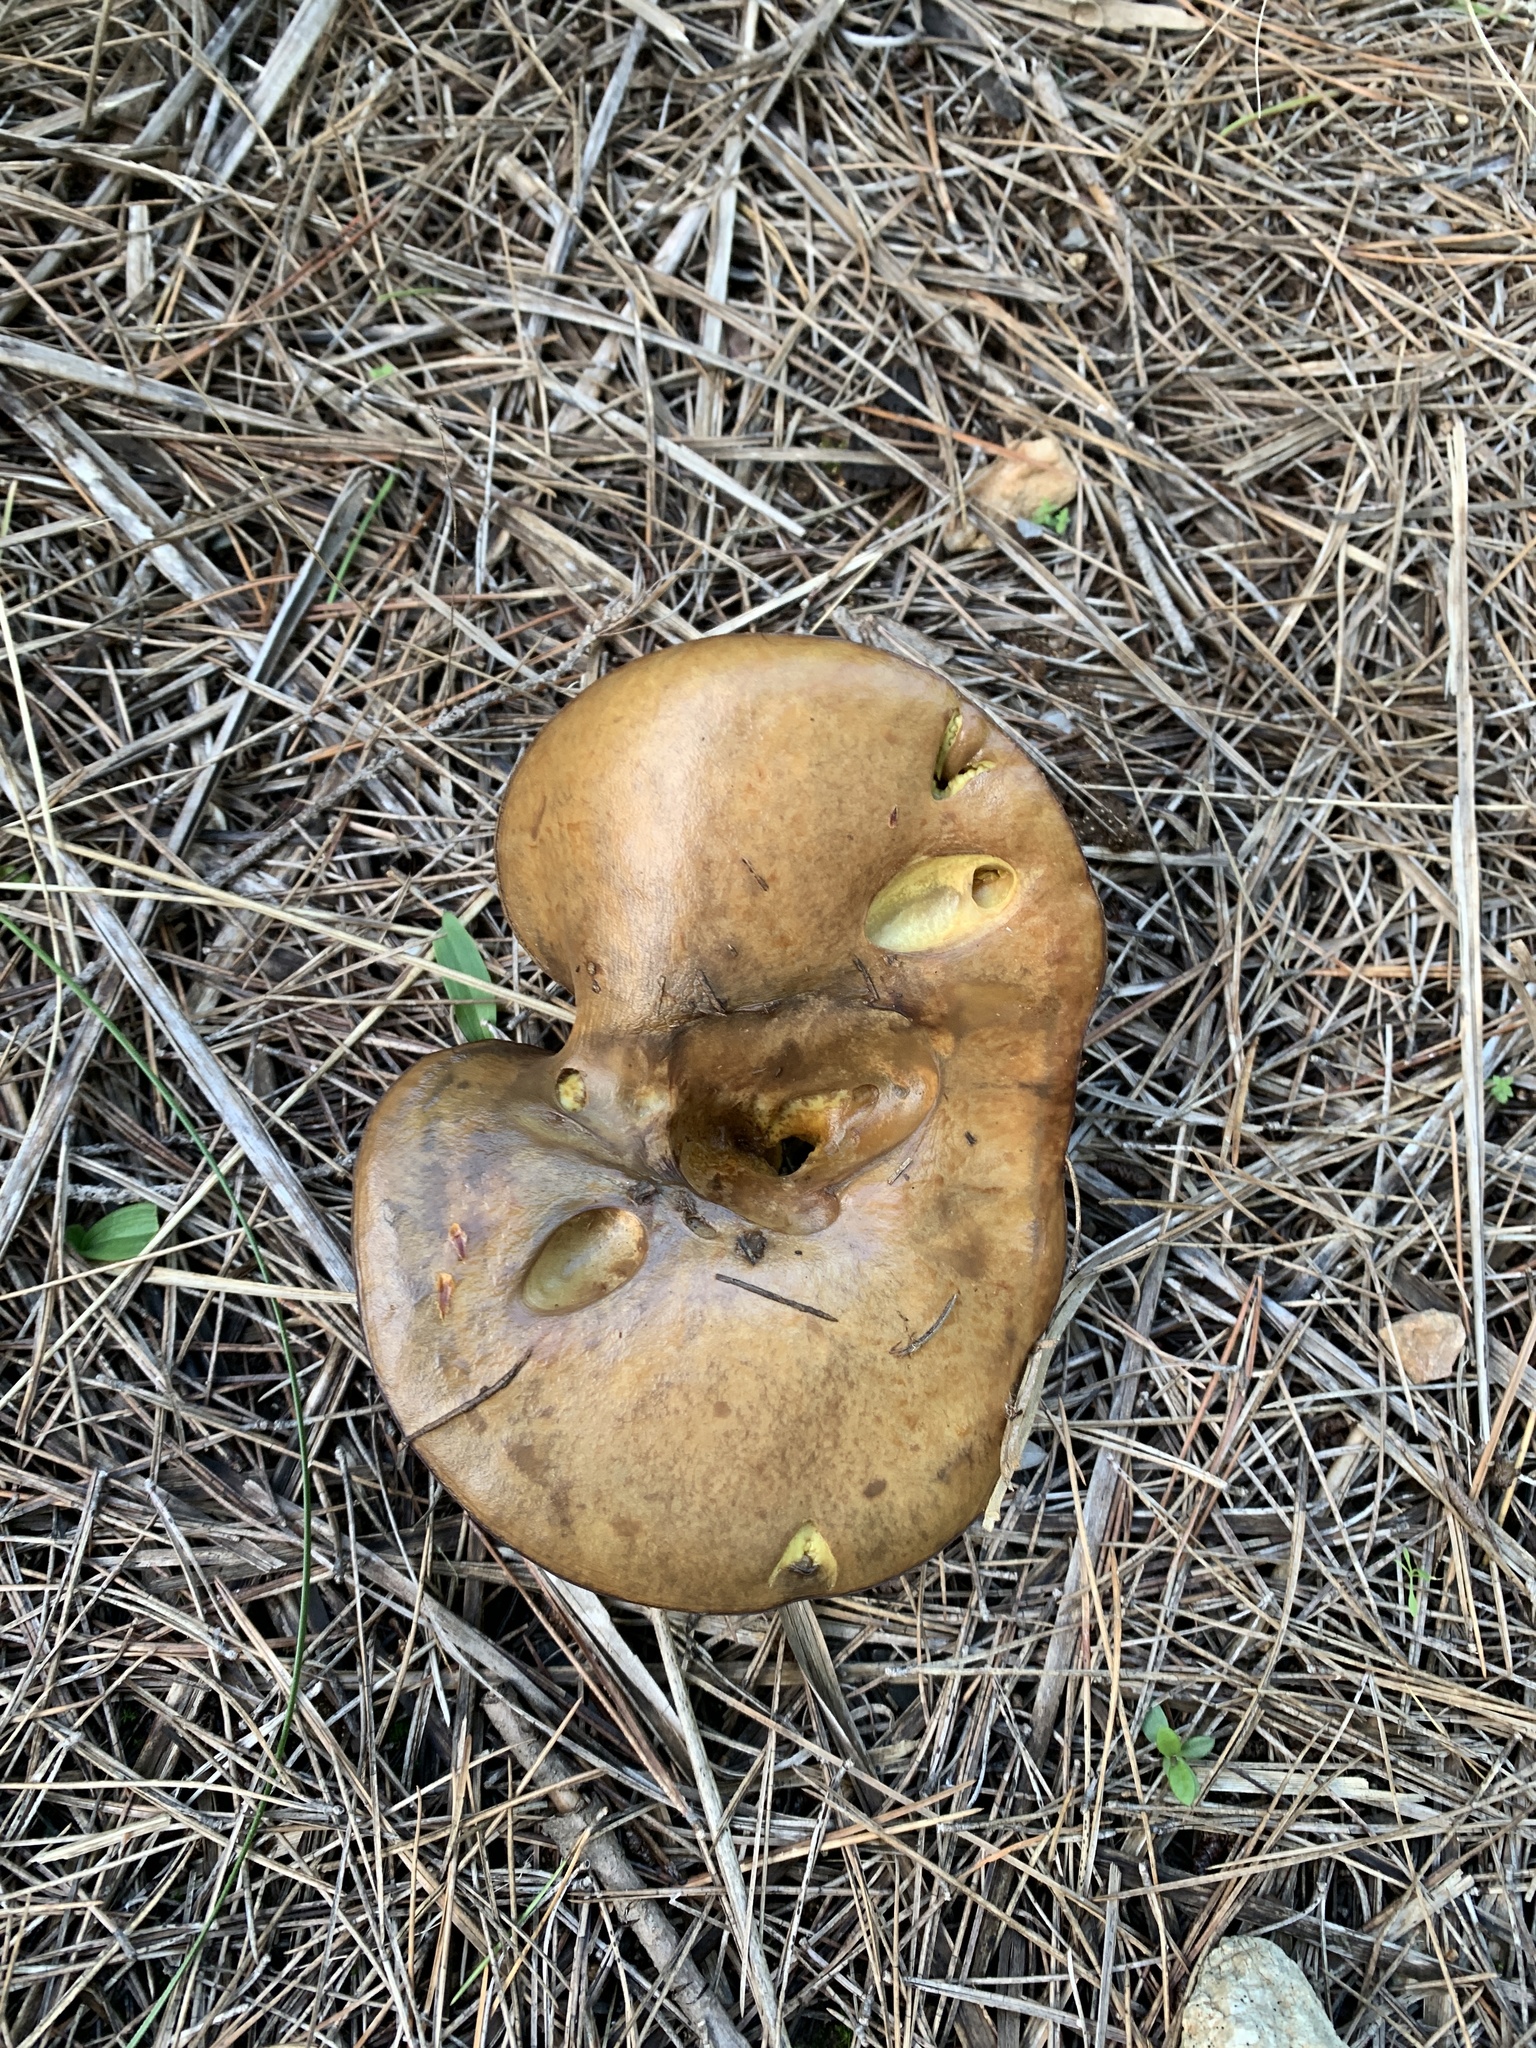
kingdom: Fungi
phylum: Basidiomycota
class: Agaricomycetes
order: Boletales
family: Suillaceae
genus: Suillus
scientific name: Suillus granulatus
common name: Weeping bolete
